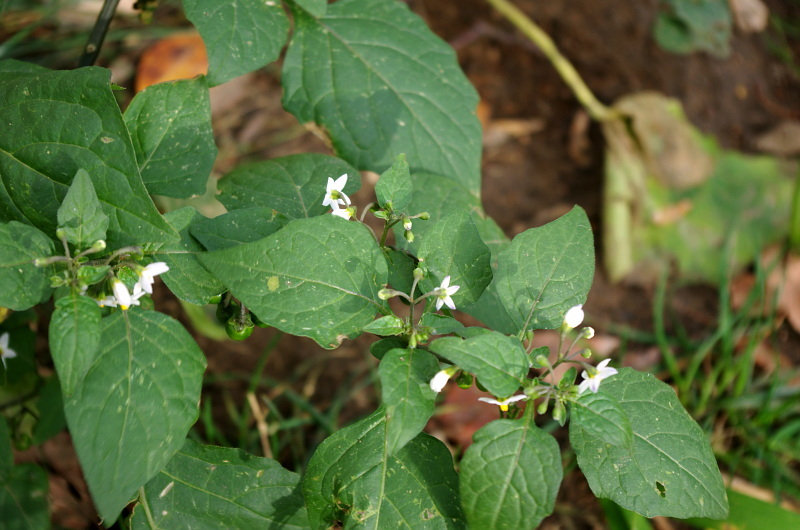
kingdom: Plantae
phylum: Tracheophyta
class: Magnoliopsida
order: Solanales
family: Solanaceae
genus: Solanum
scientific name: Solanum nigrum
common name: Black nightshade
